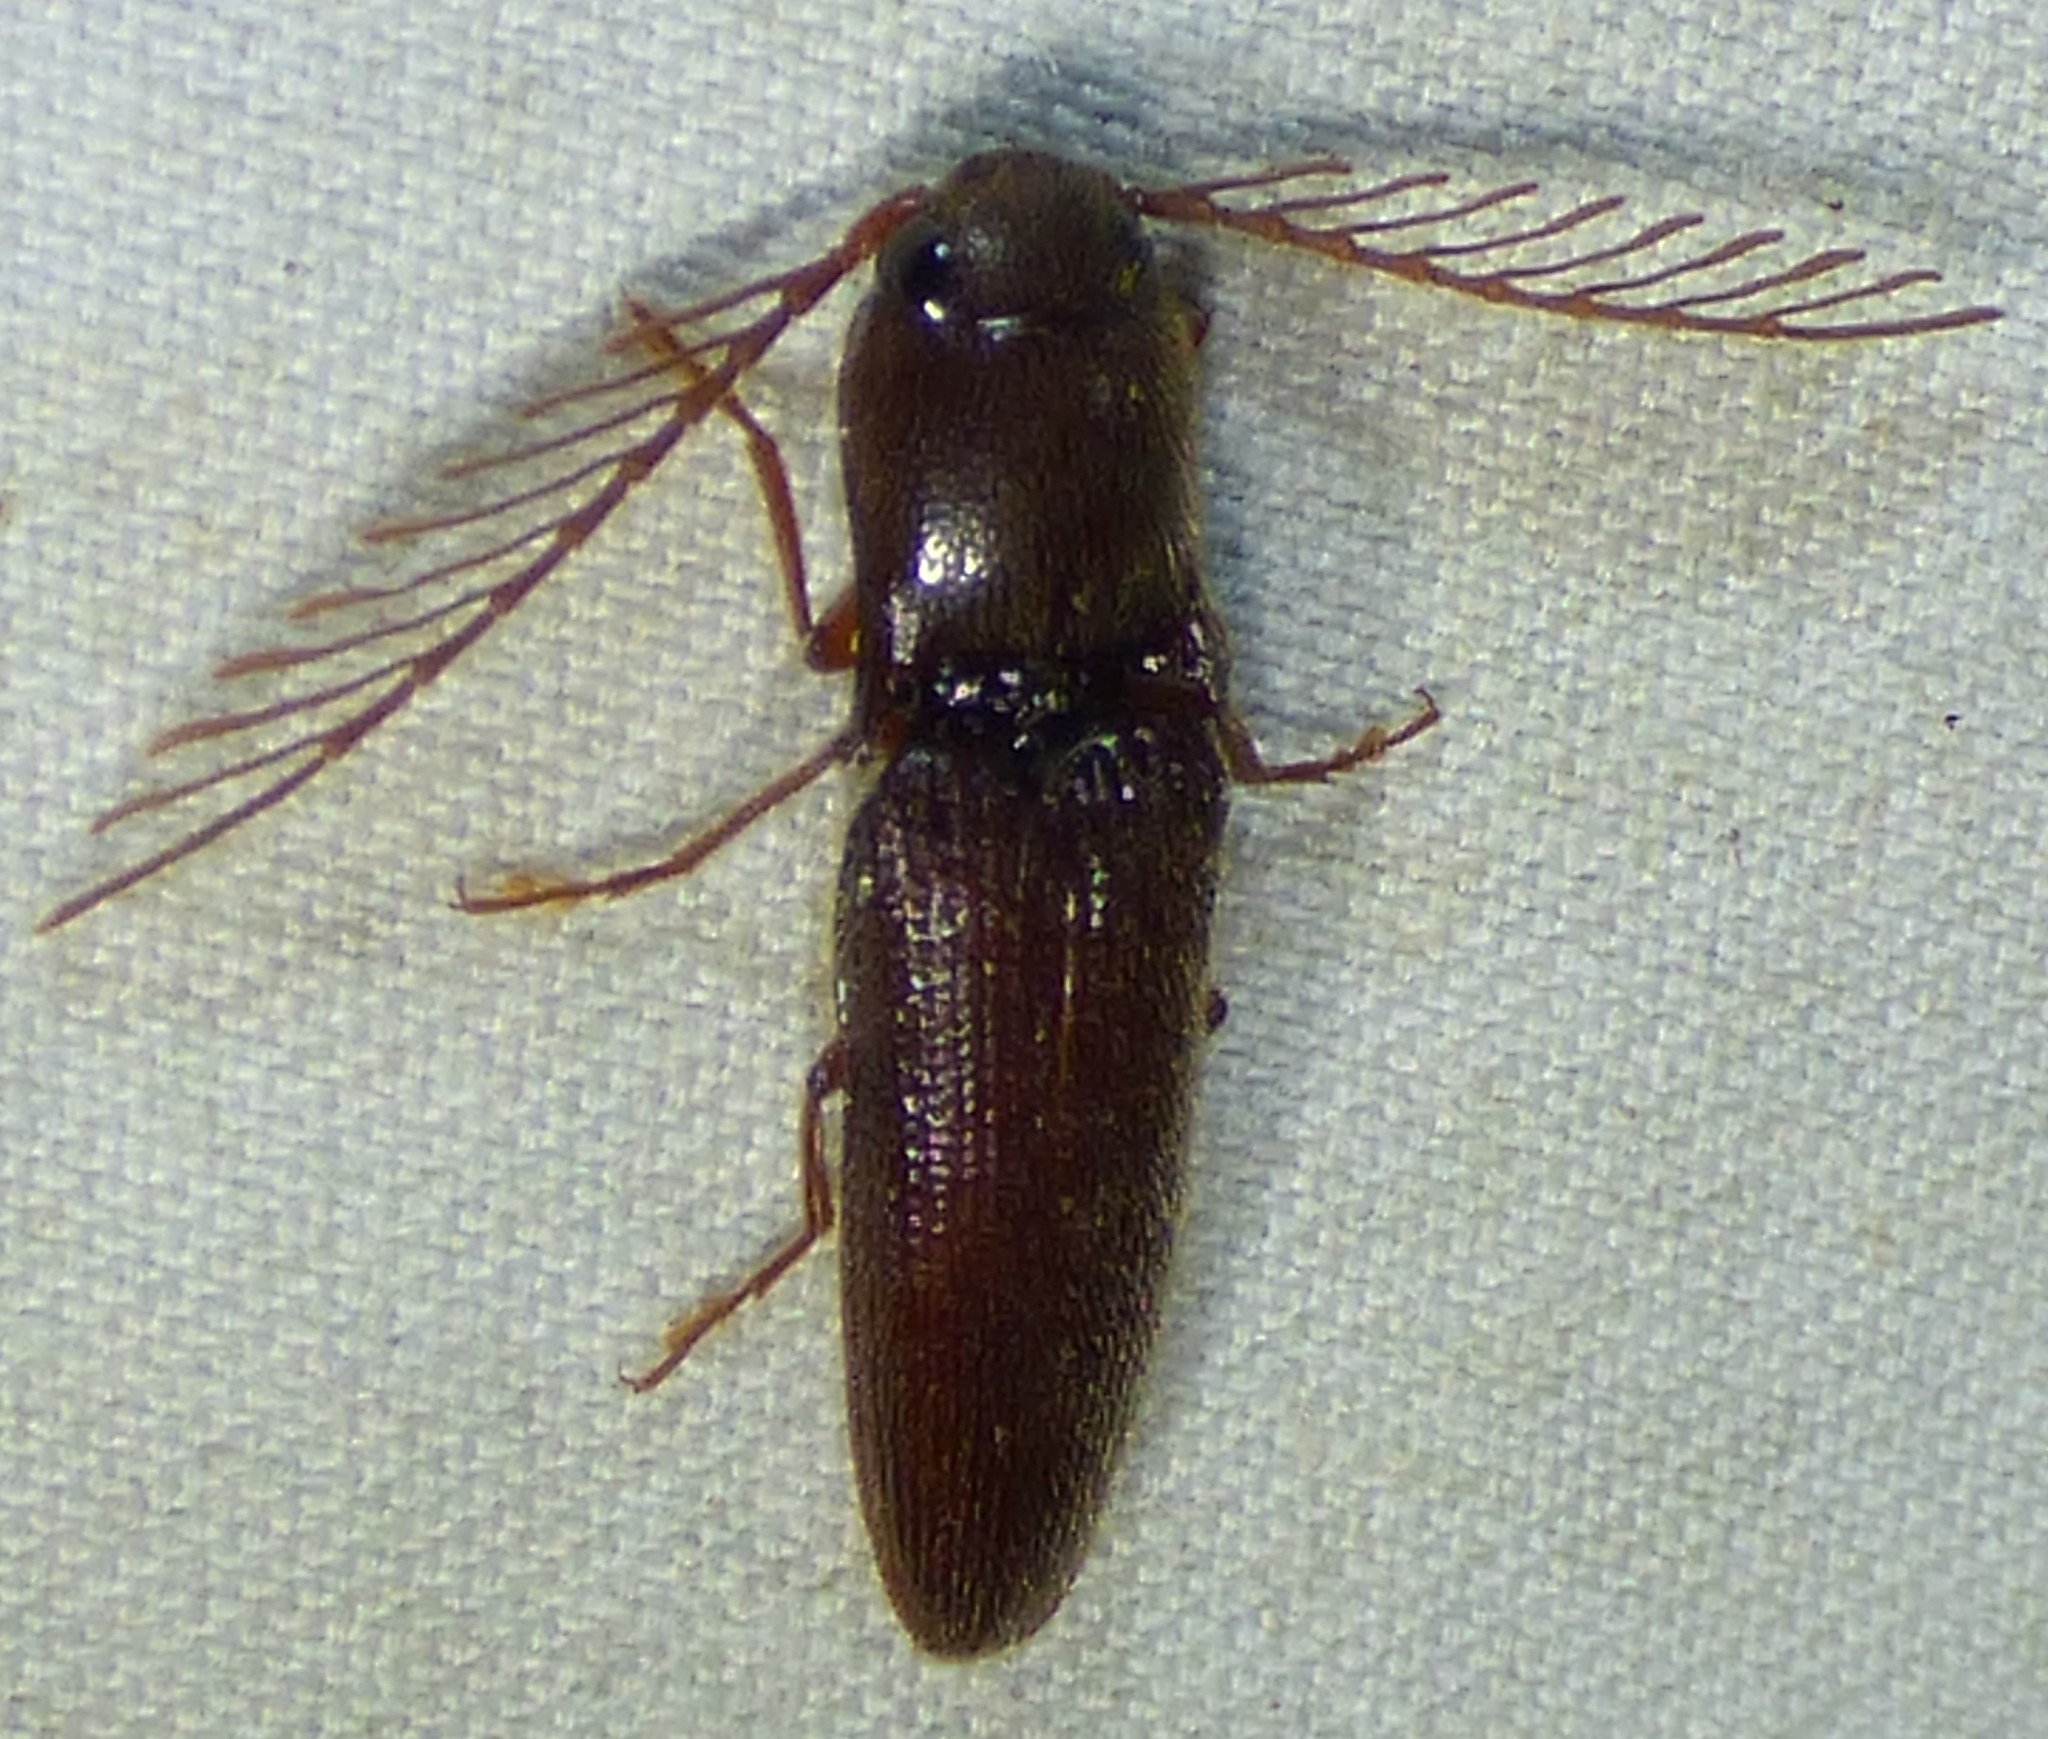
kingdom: Animalia
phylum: Arthropoda
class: Insecta
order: Coleoptera
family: Elateridae
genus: Dicrepidius
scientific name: Dicrepidius palmatus
